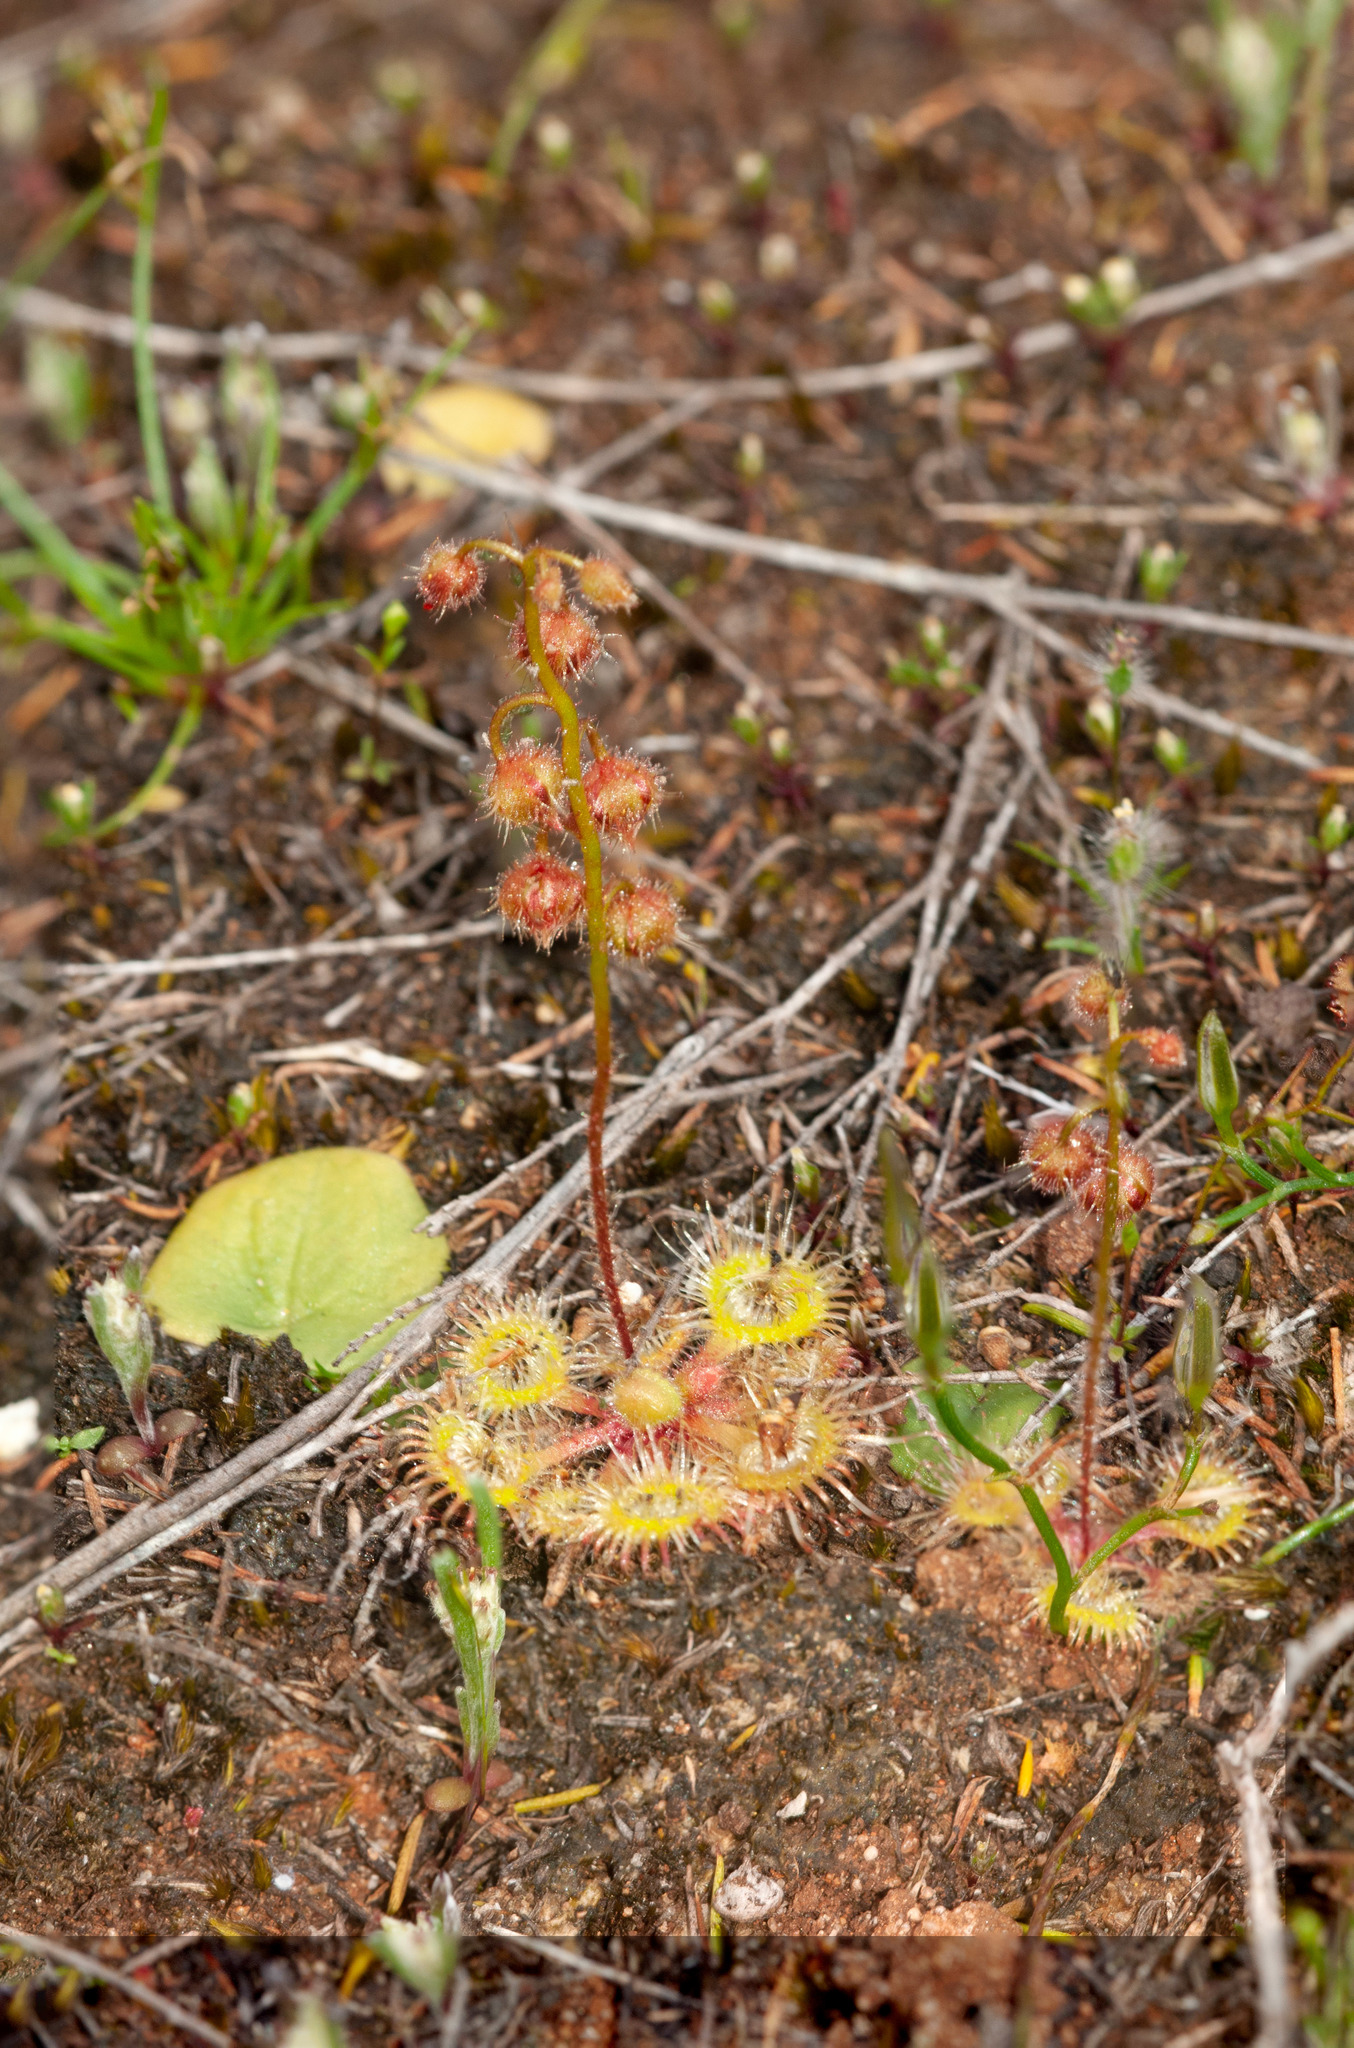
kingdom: Plantae
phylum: Tracheophyta
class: Magnoliopsida
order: Caryophyllales
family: Droseraceae
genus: Drosera
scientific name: Drosera glanduligera
